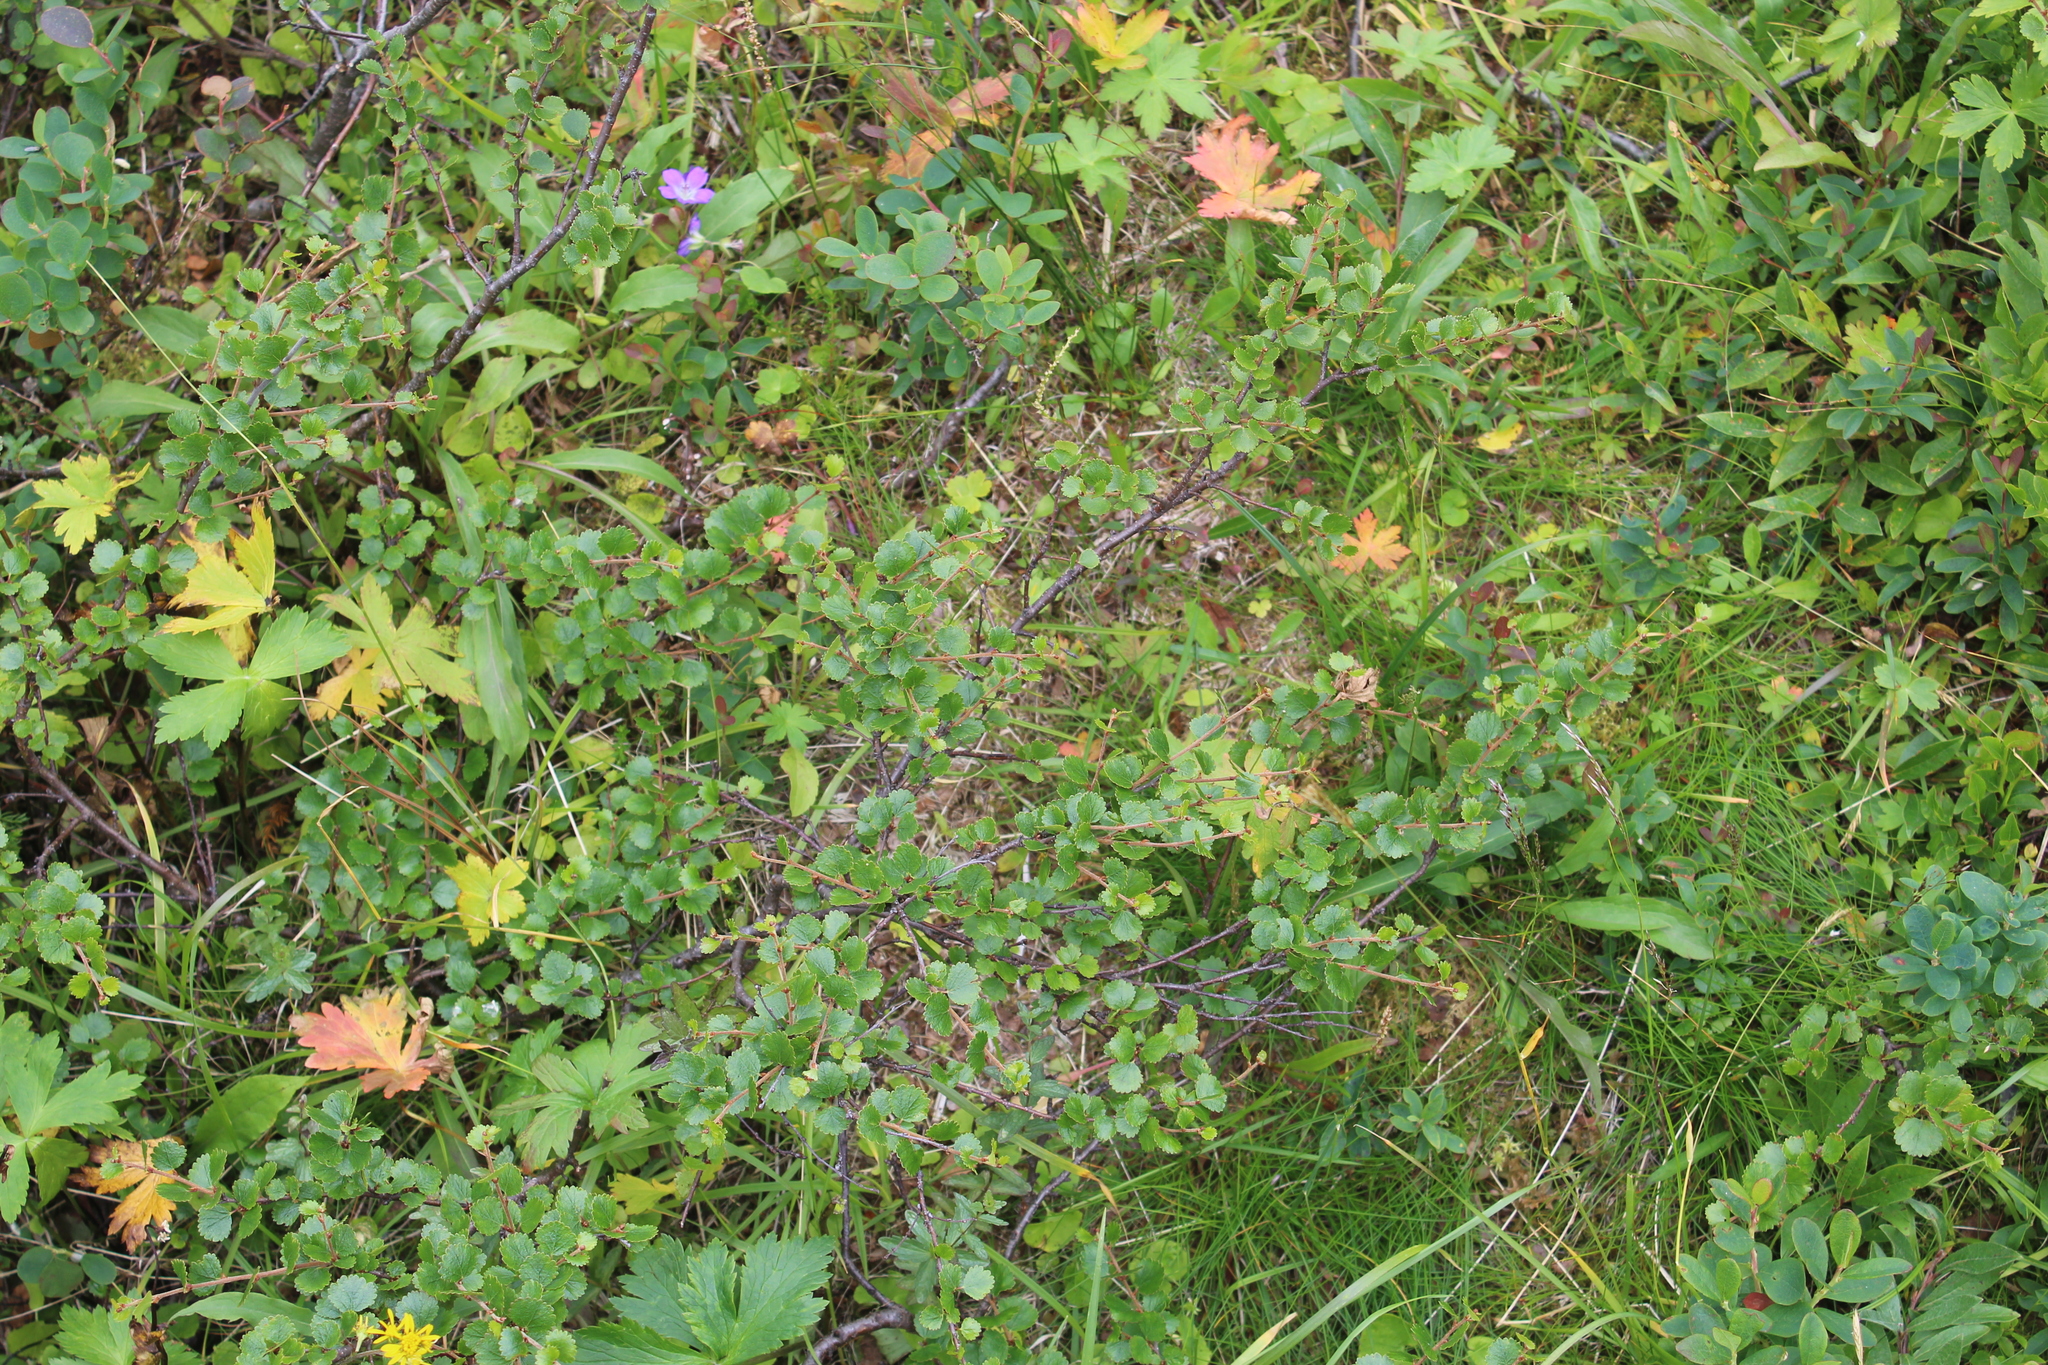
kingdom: Plantae
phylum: Tracheophyta
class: Magnoliopsida
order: Fagales
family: Betulaceae
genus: Betula
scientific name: Betula nana
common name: Arctic dwarf birch
